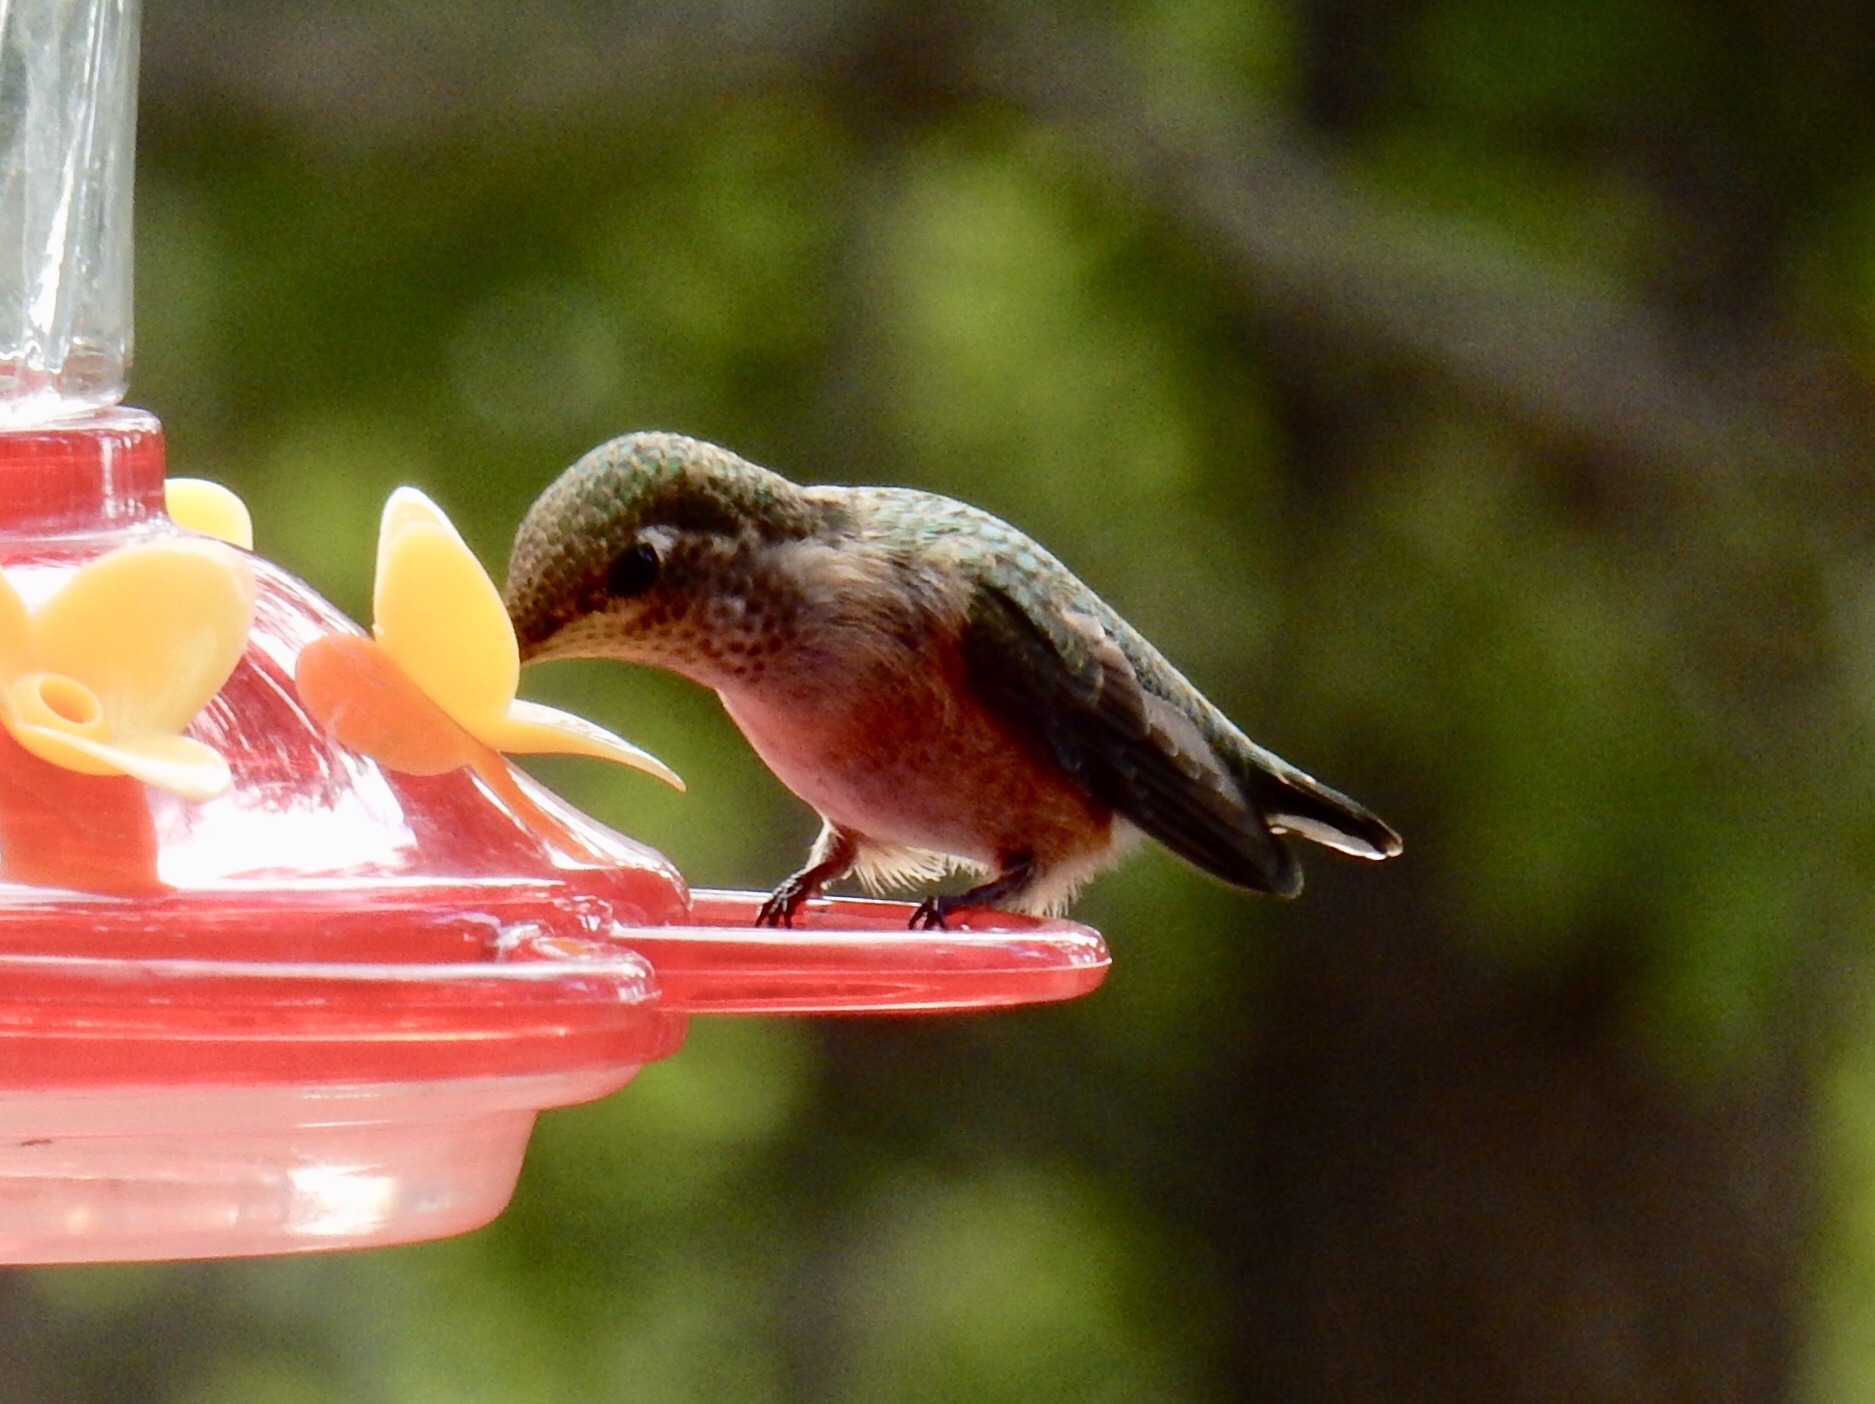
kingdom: Animalia
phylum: Chordata
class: Aves
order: Apodiformes
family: Trochilidae
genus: Selasphorus
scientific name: Selasphorus platycercus
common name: Broad-tailed hummingbird
